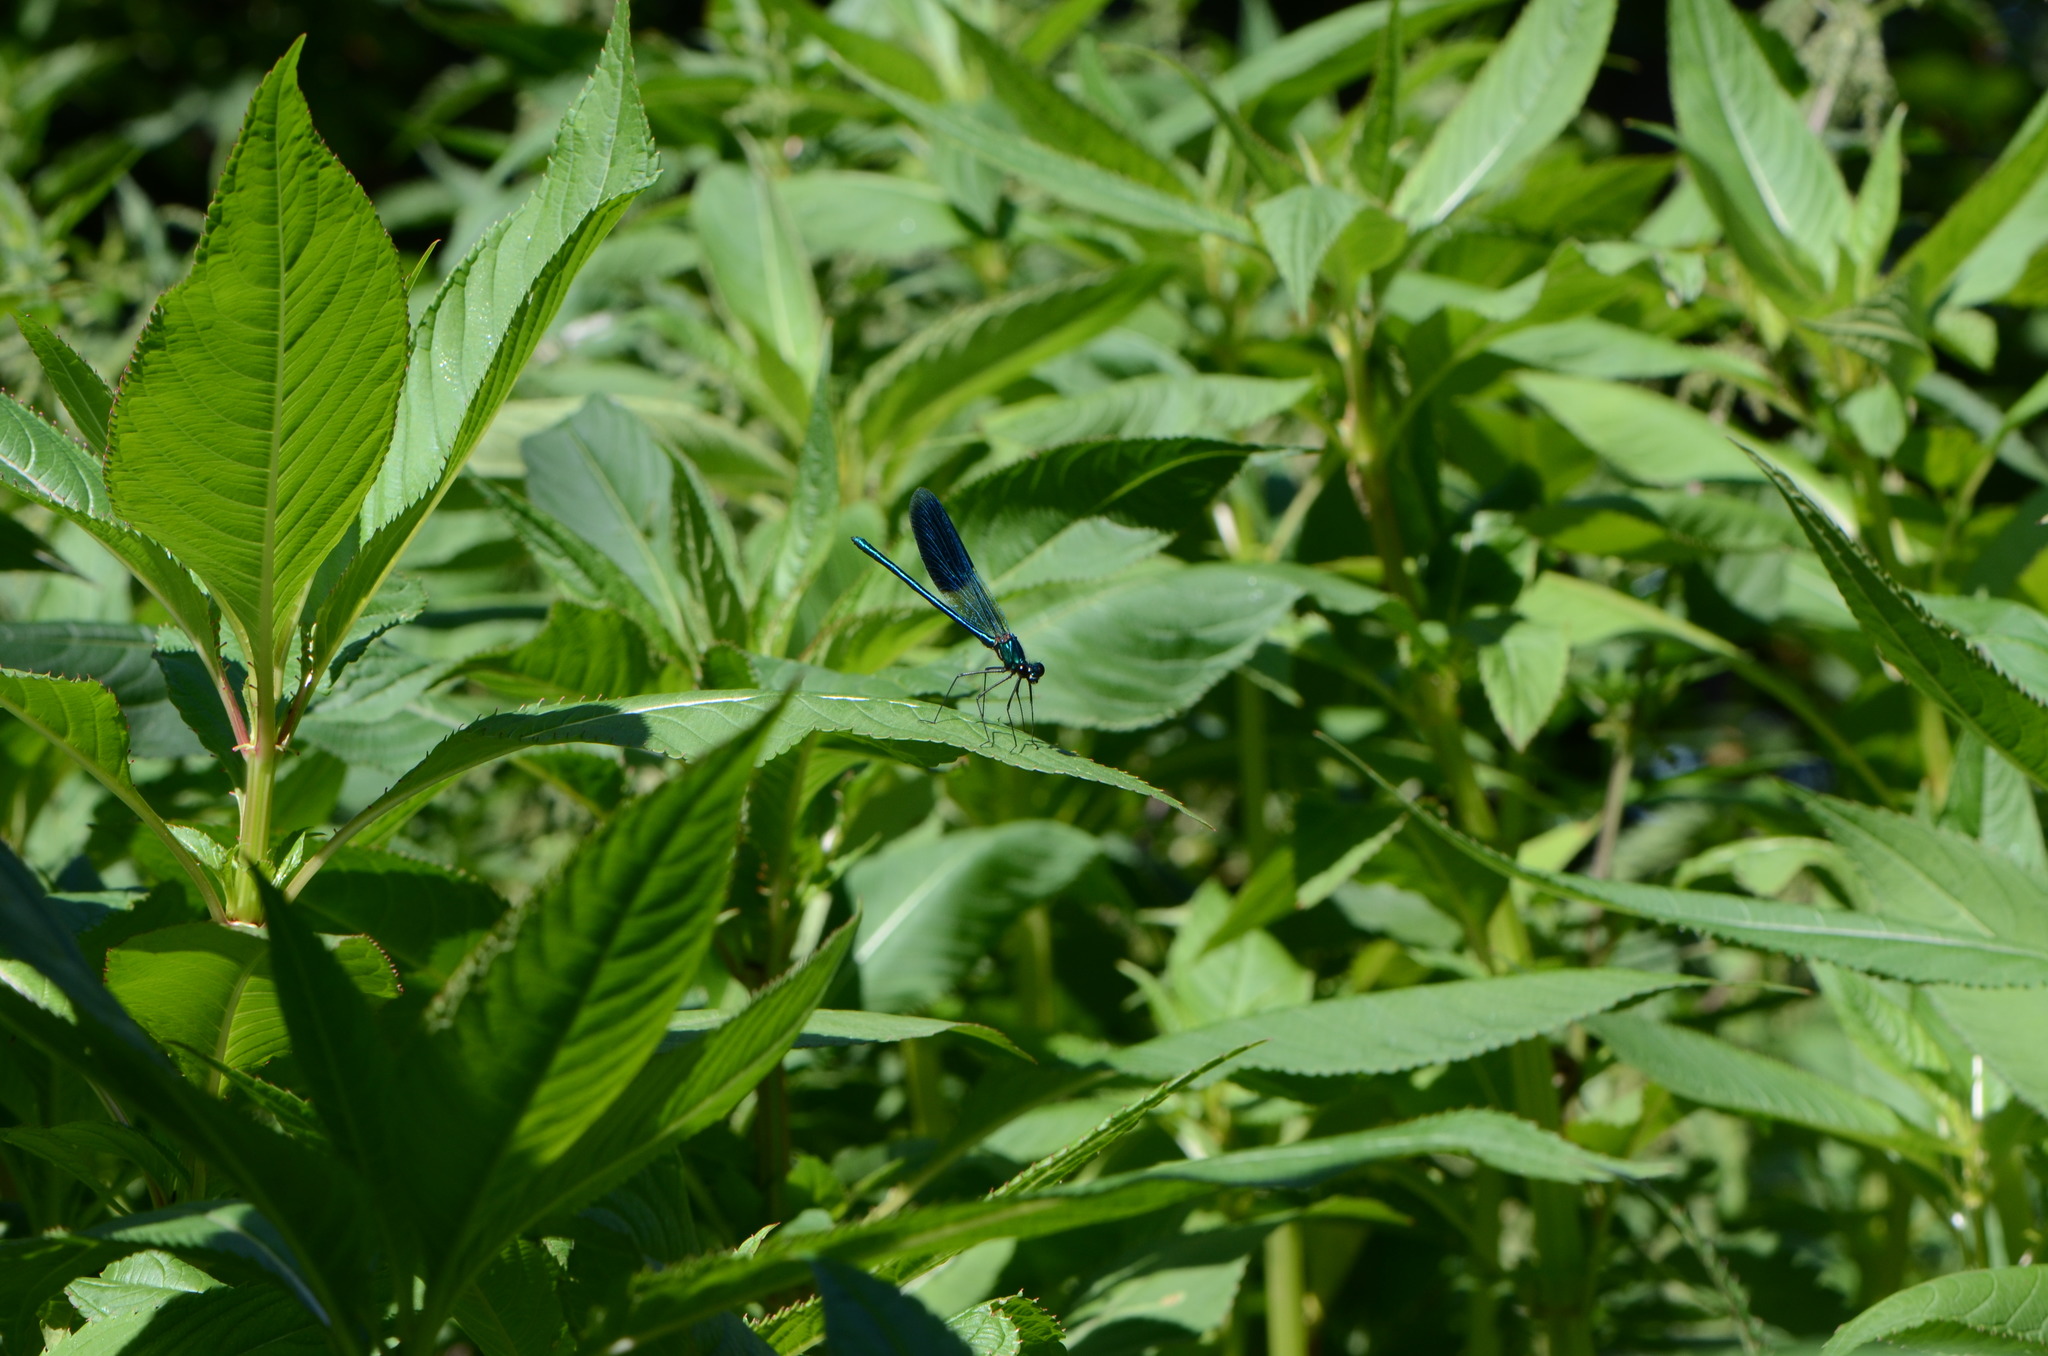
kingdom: Animalia
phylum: Arthropoda
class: Insecta
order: Odonata
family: Calopterygidae
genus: Calopteryx
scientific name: Calopteryx splendens
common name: Banded demoiselle
